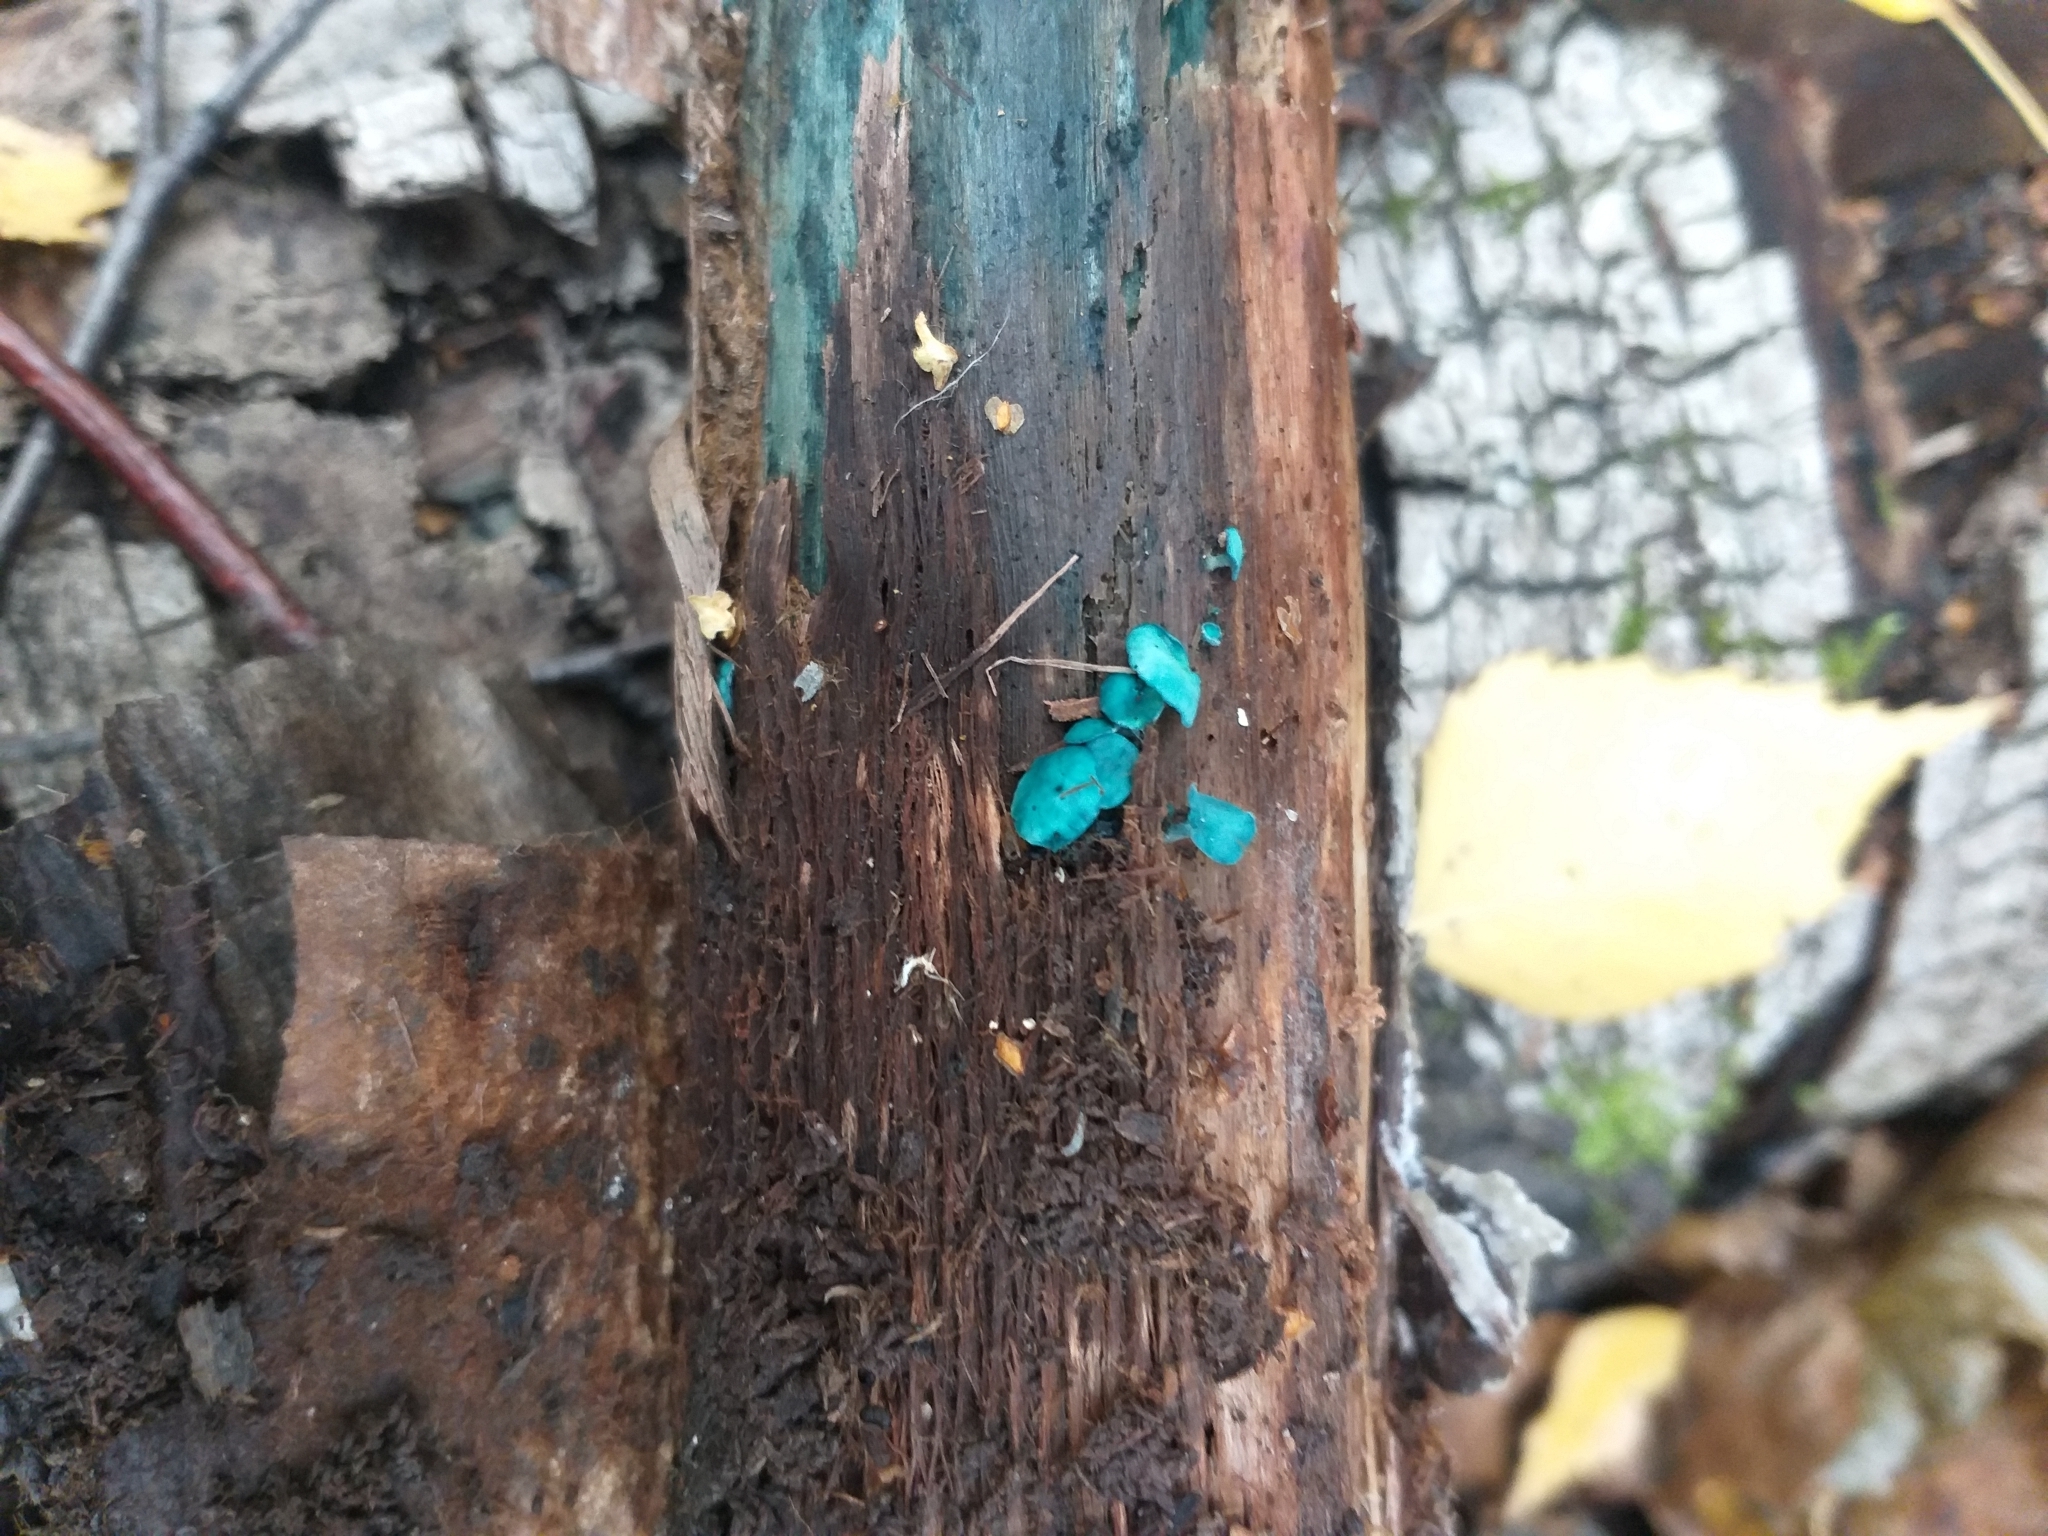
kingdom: Fungi
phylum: Ascomycota
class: Leotiomycetes
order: Helotiales
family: Chlorociboriaceae
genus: Chlorociboria
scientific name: Chlorociboria aeruginascens
